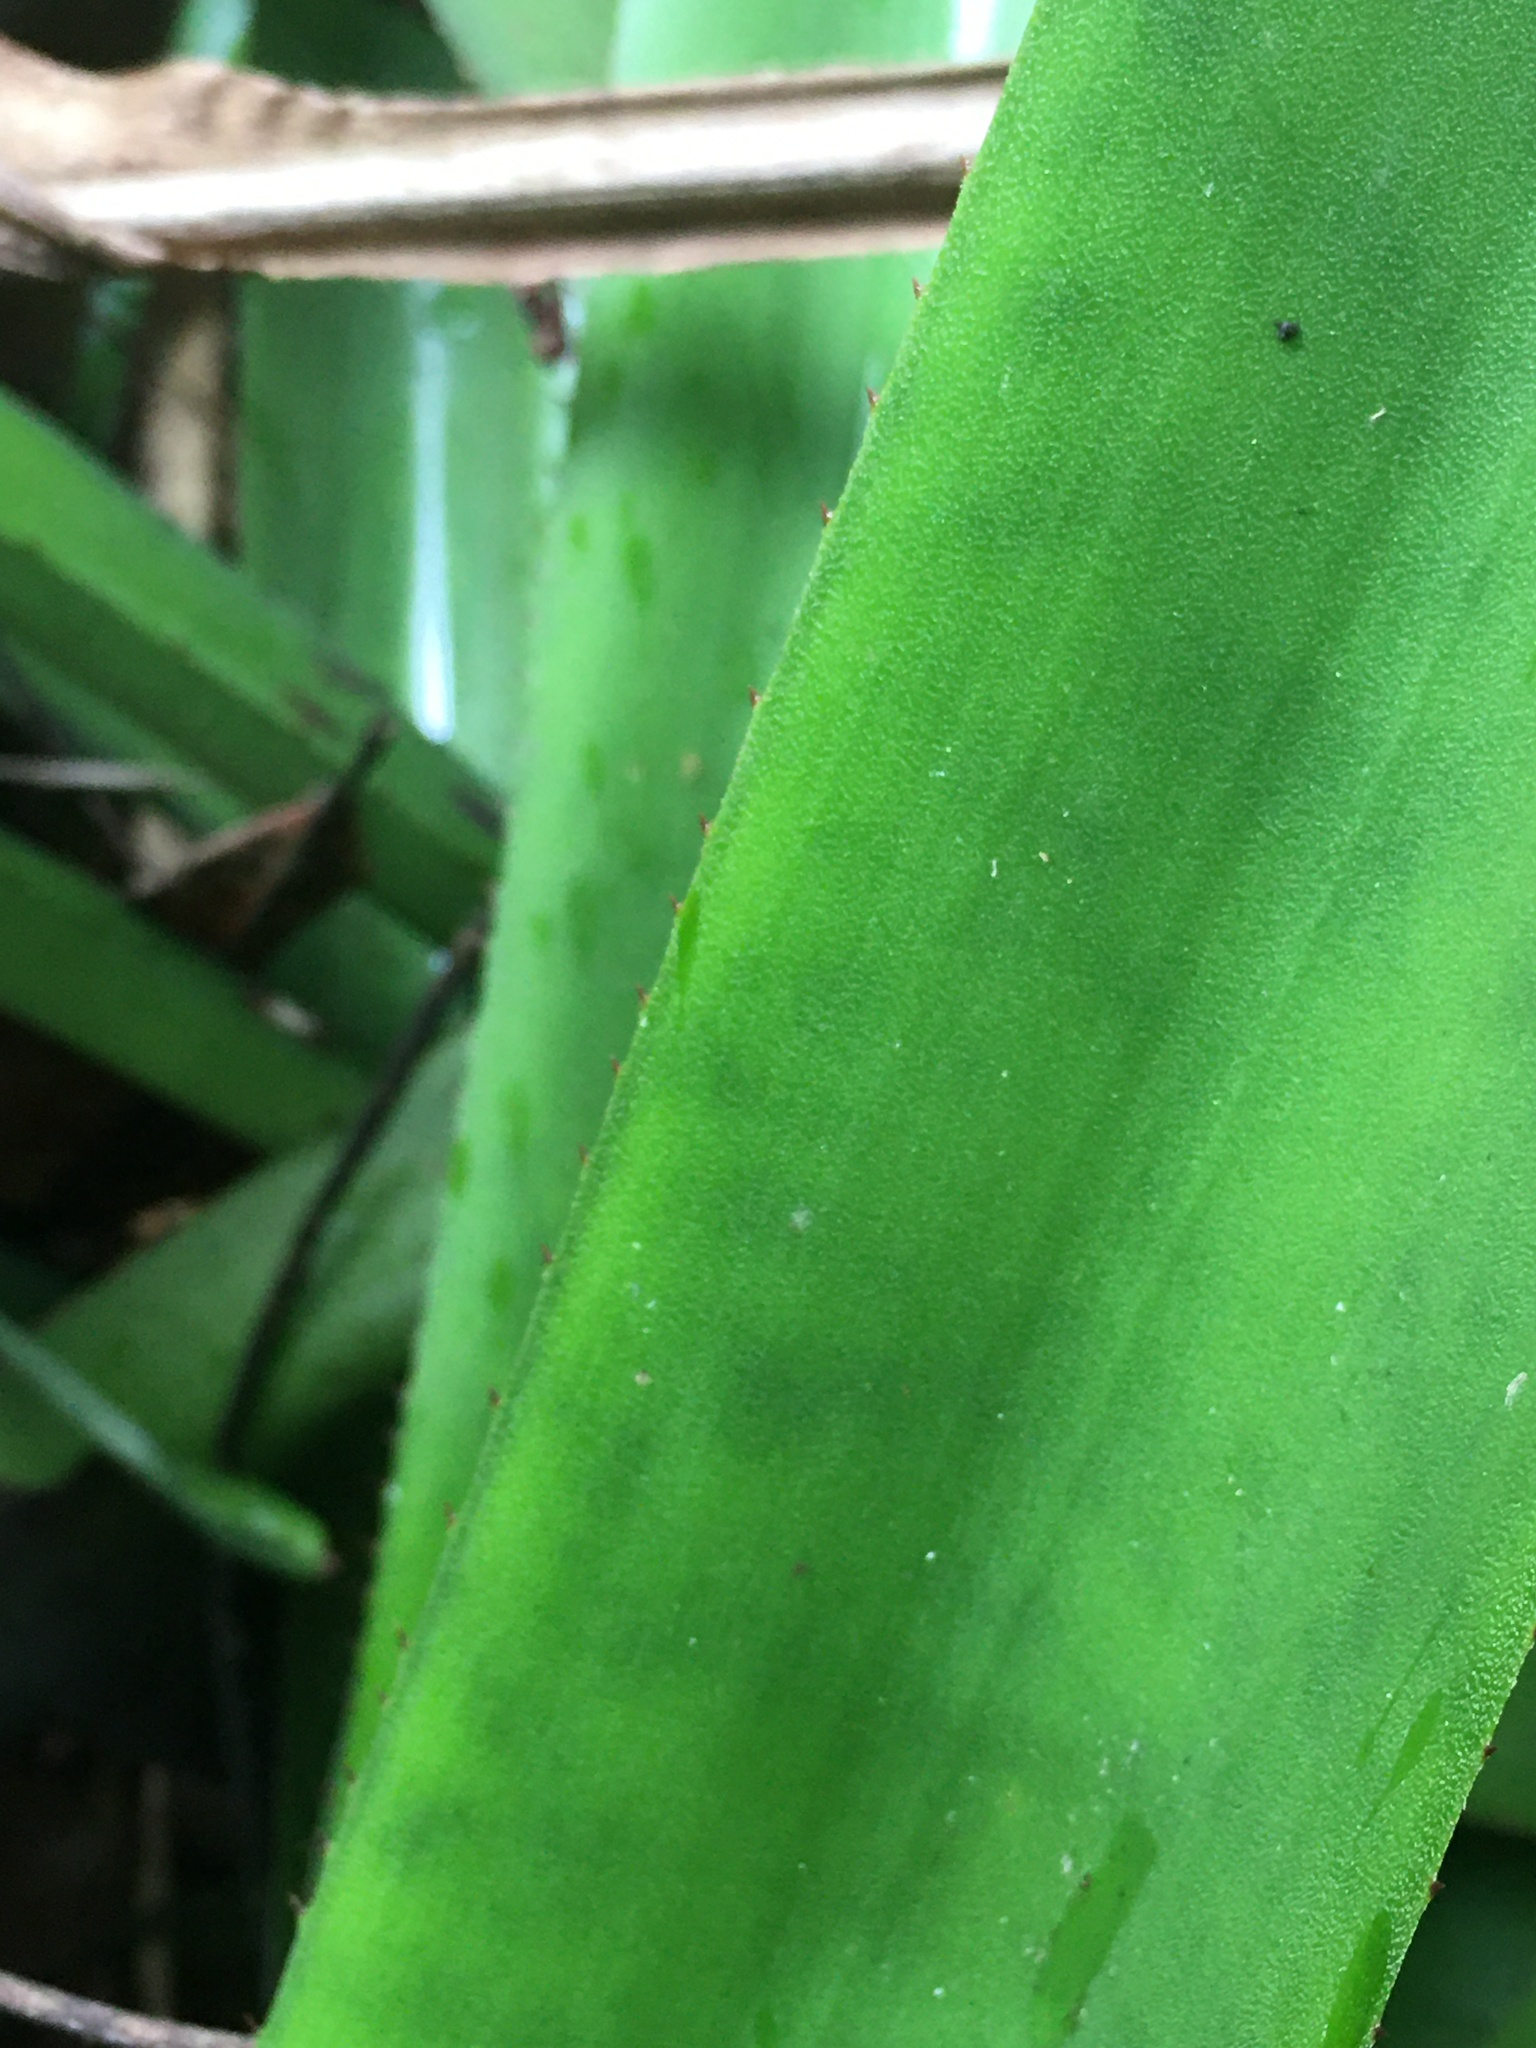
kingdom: Plantae
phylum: Tracheophyta
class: Liliopsida
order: Poales
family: Bromeliaceae
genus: Aechmea
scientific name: Aechmea cephaloides
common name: Living vase
